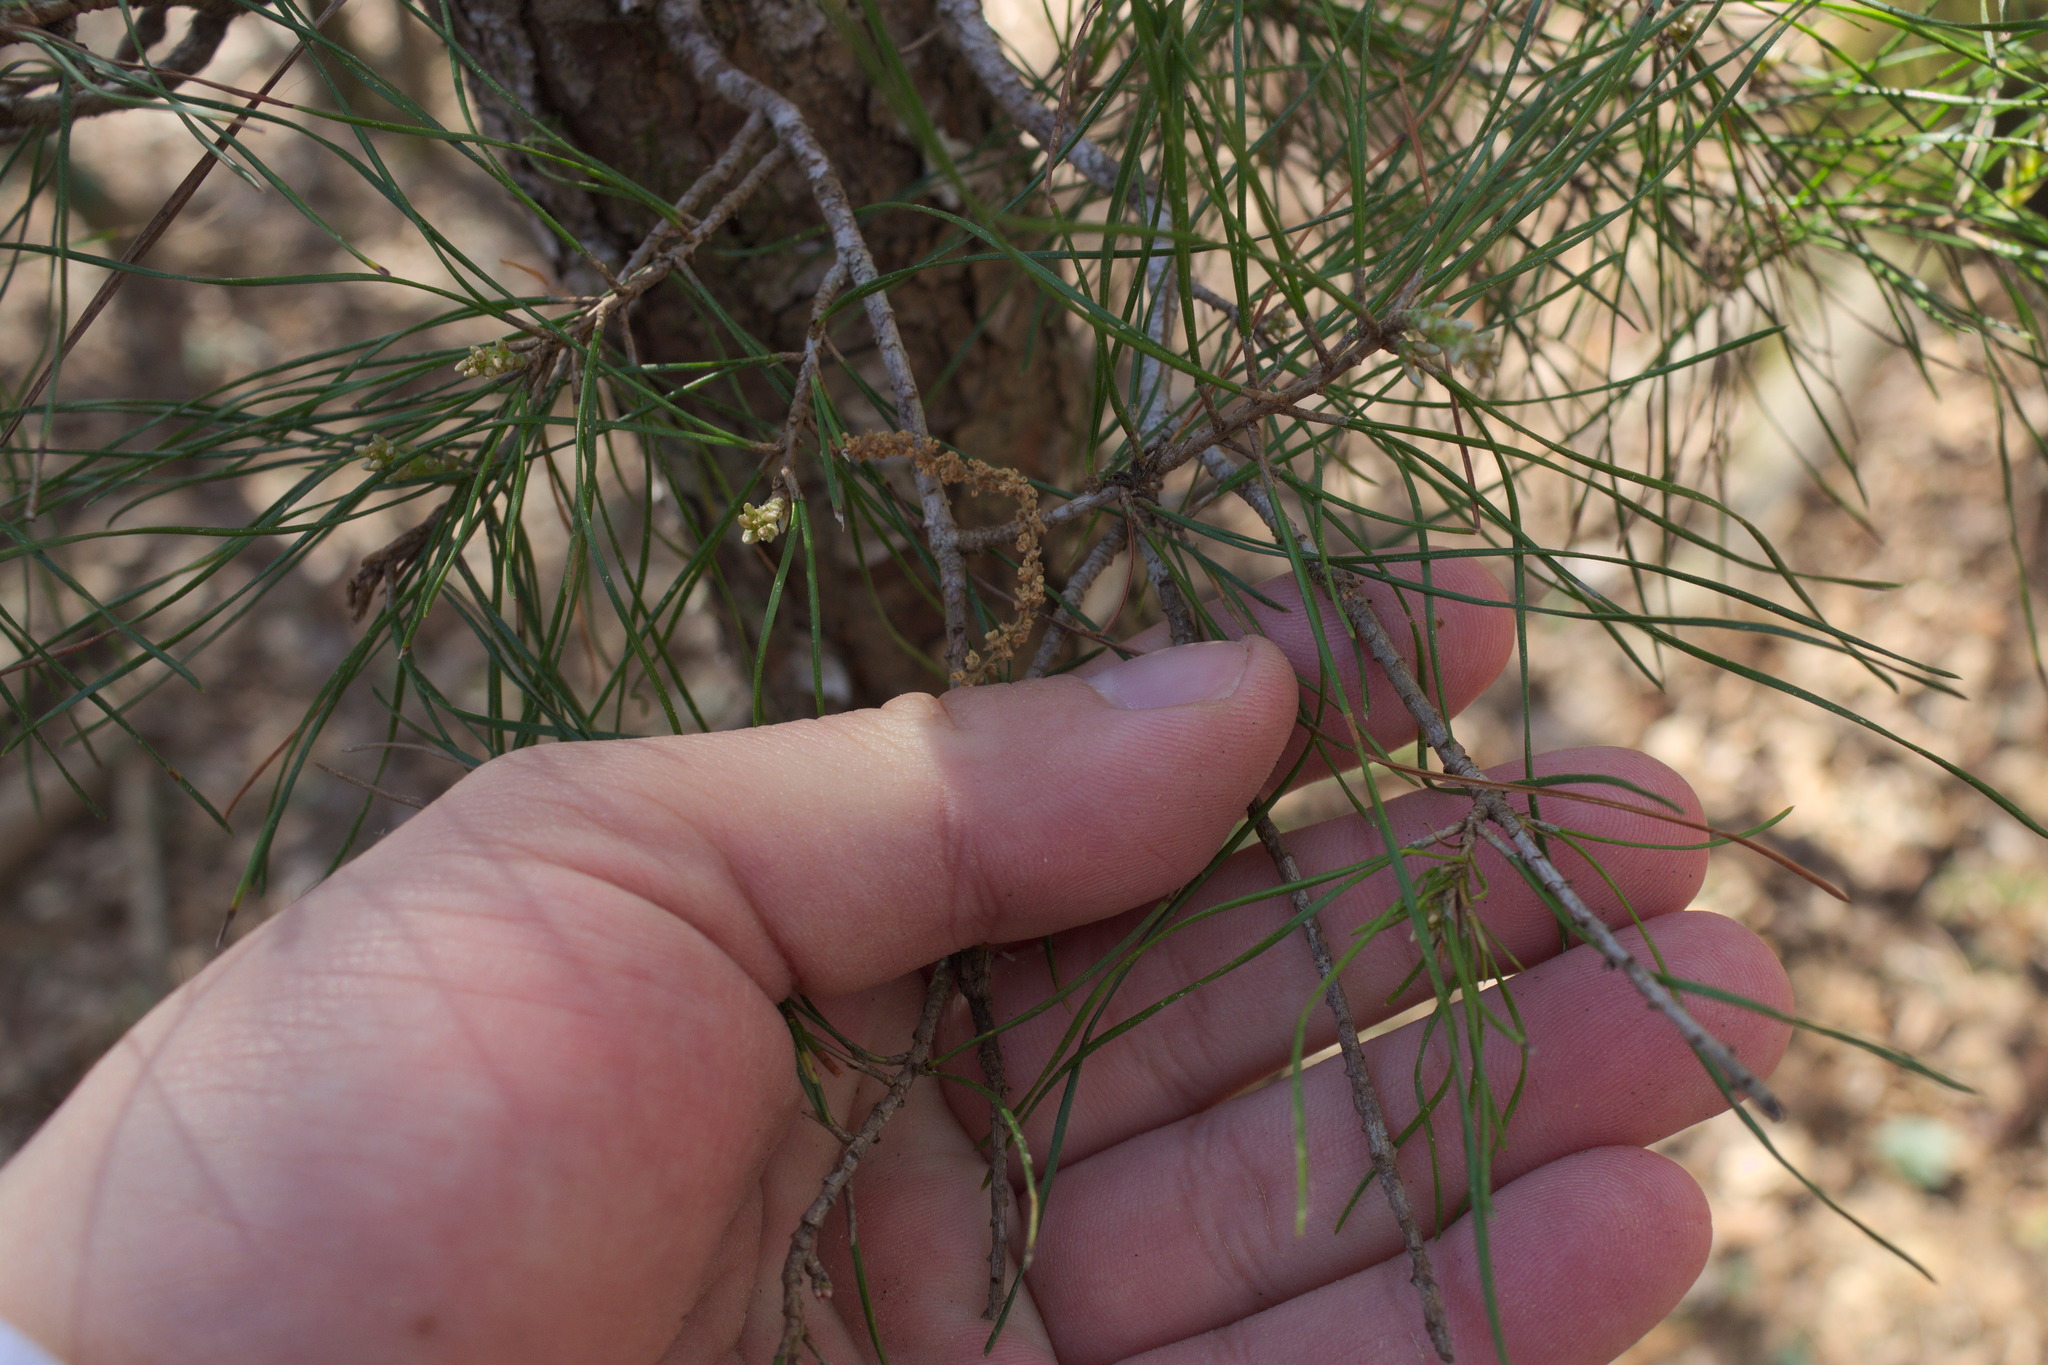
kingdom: Plantae
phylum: Tracheophyta
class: Pinopsida
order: Pinales
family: Pinaceae
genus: Pinus
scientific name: Pinus echinata
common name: Shortleaf pine
